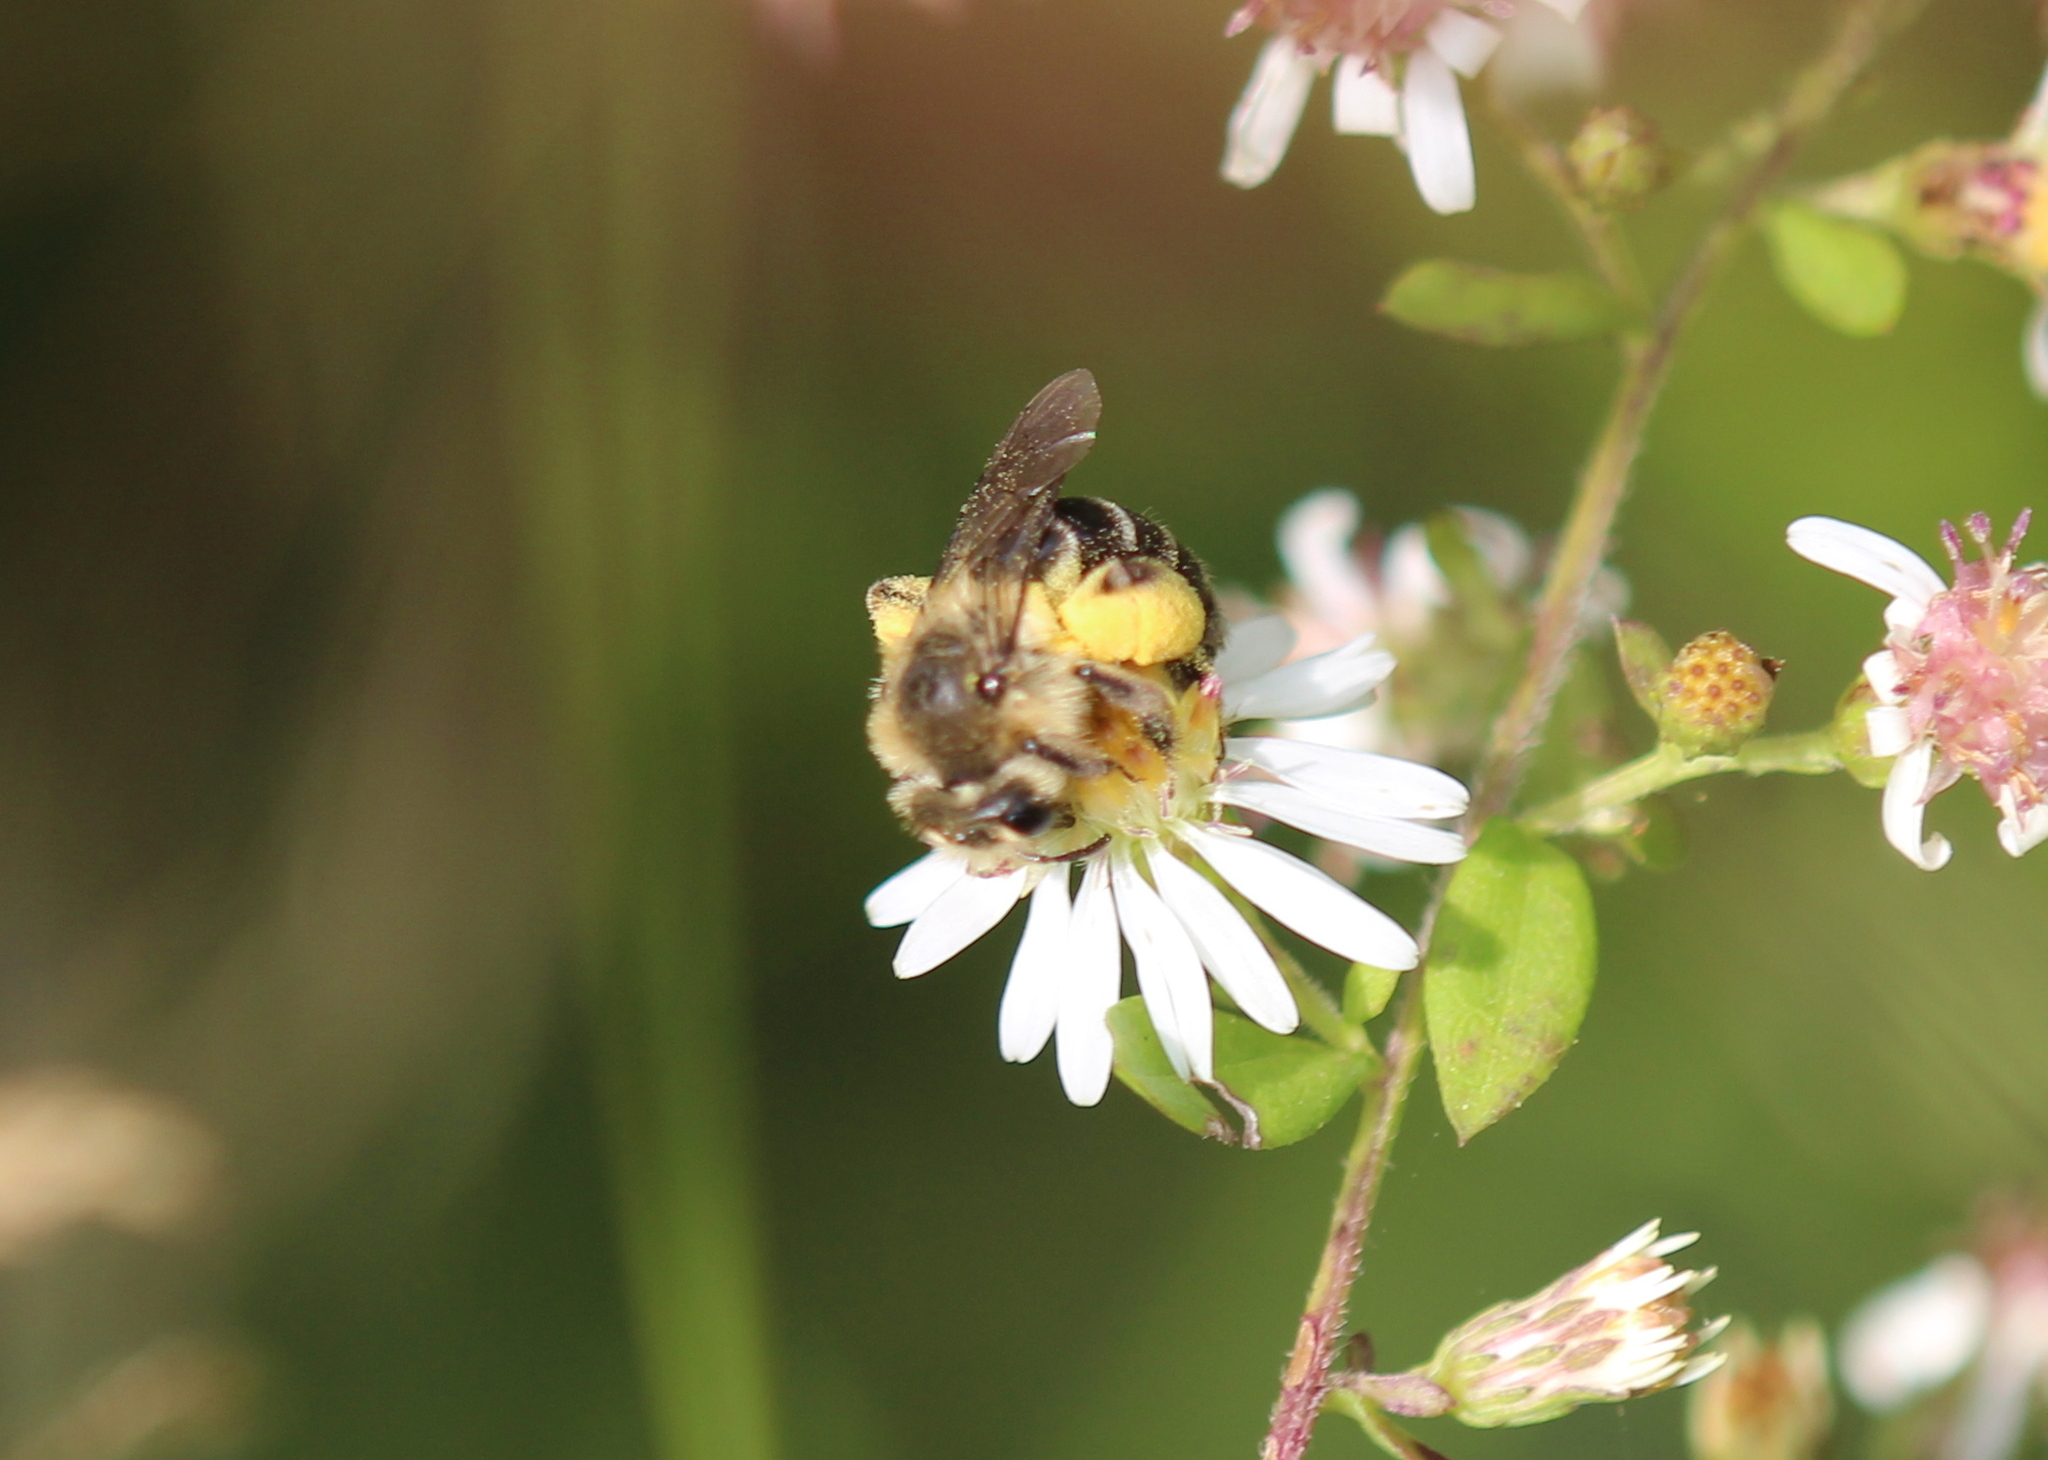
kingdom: Animalia
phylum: Arthropoda
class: Insecta
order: Hymenoptera
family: Andrenidae
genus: Andrena
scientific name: Andrena asteris
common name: Aster mining bee
